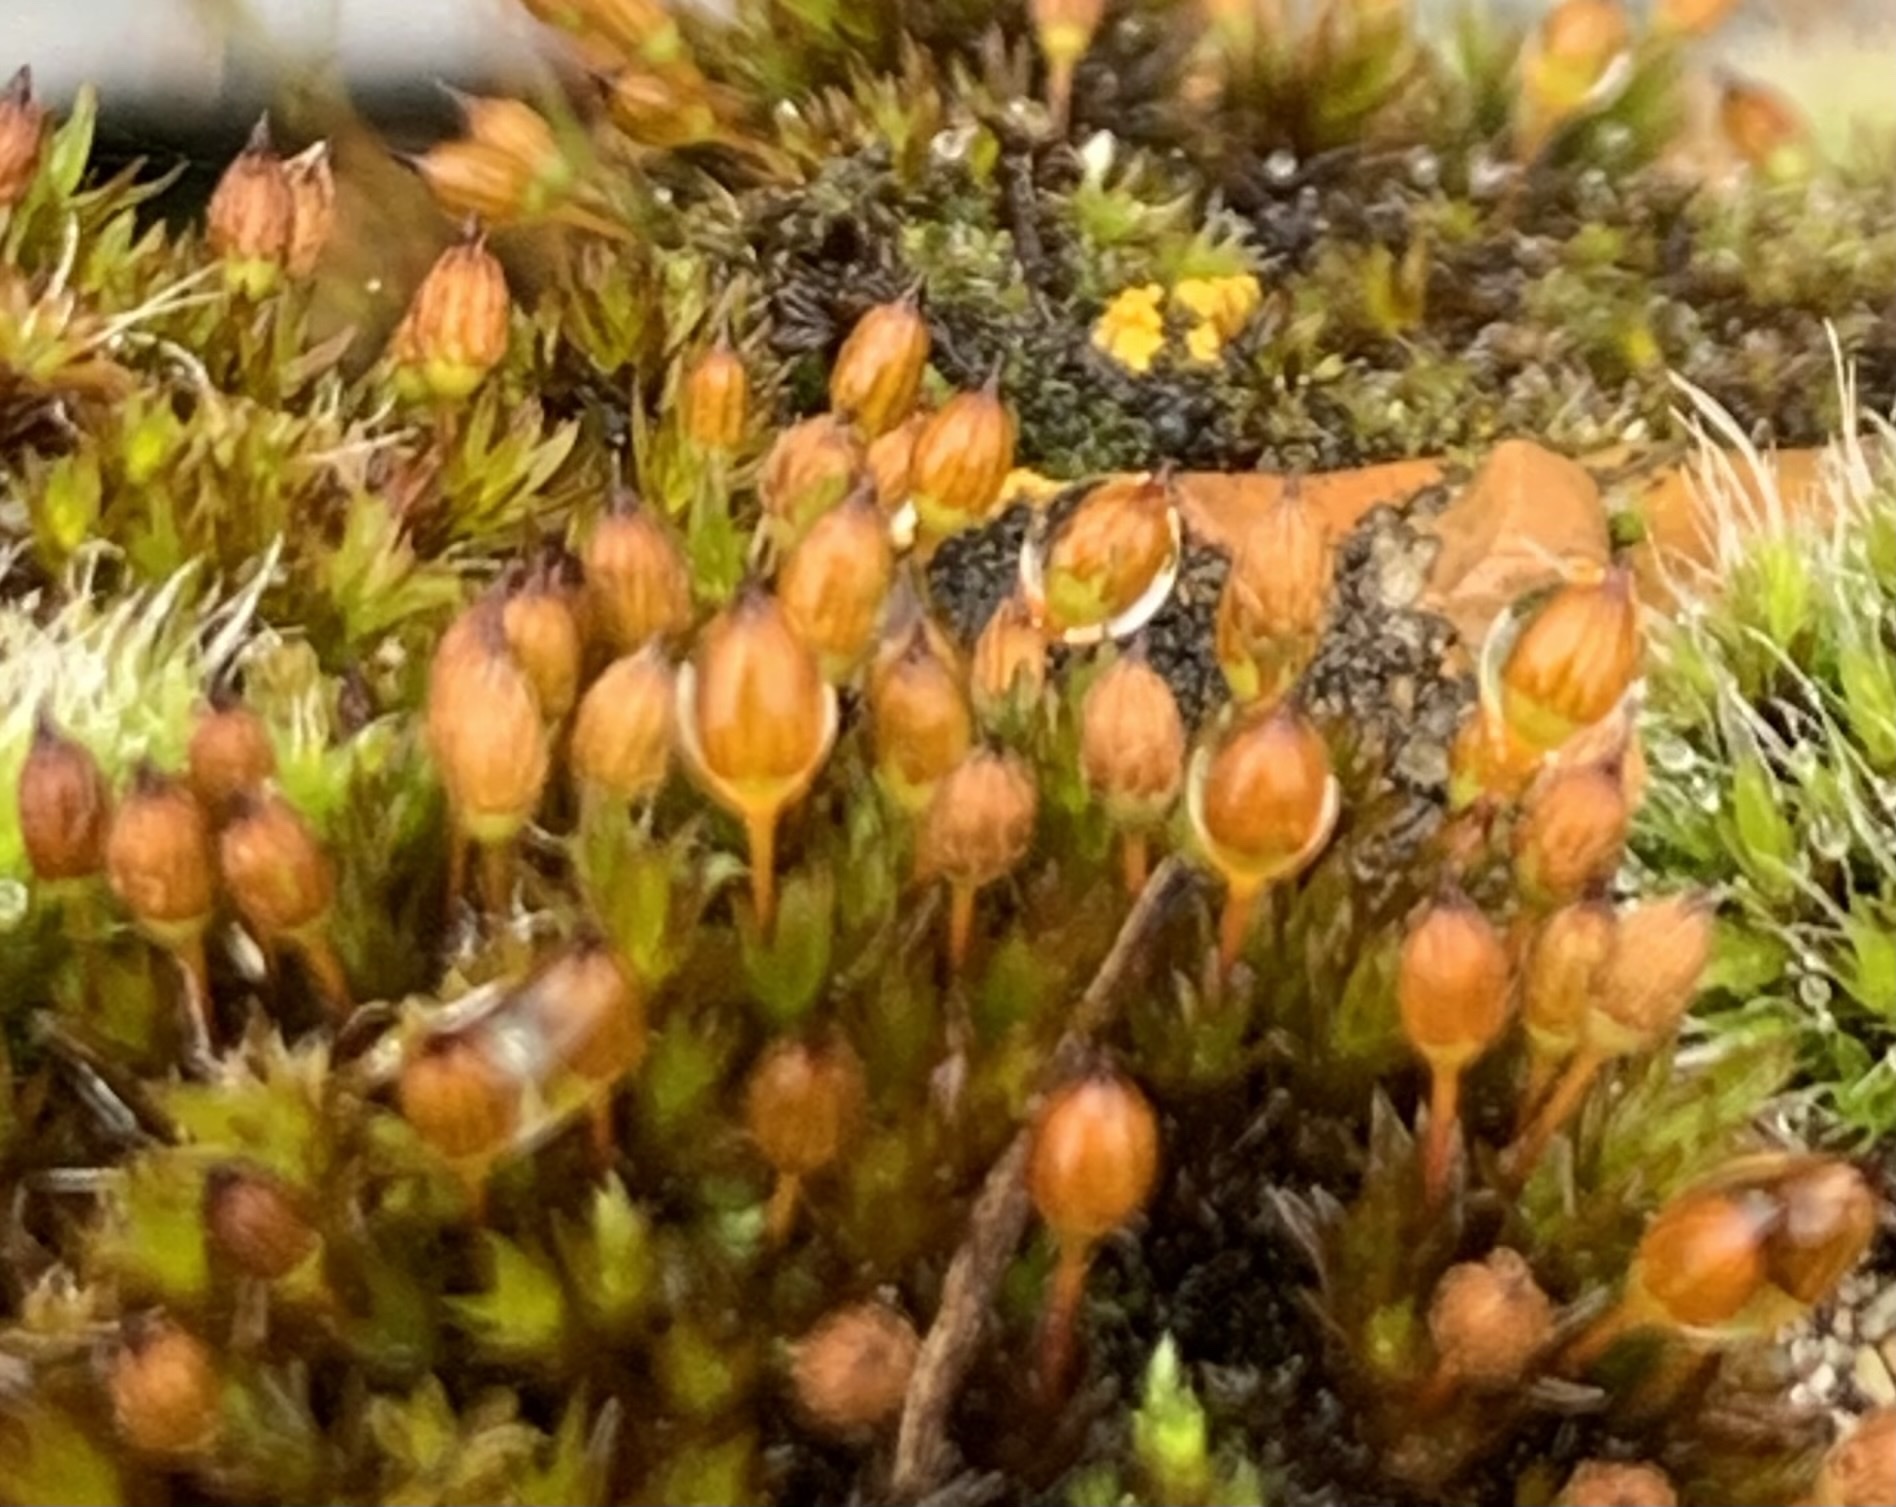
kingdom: Plantae
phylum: Bryophyta
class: Bryopsida
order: Orthotrichales
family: Orthotrichaceae
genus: Orthotrichum
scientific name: Orthotrichum anomalum
